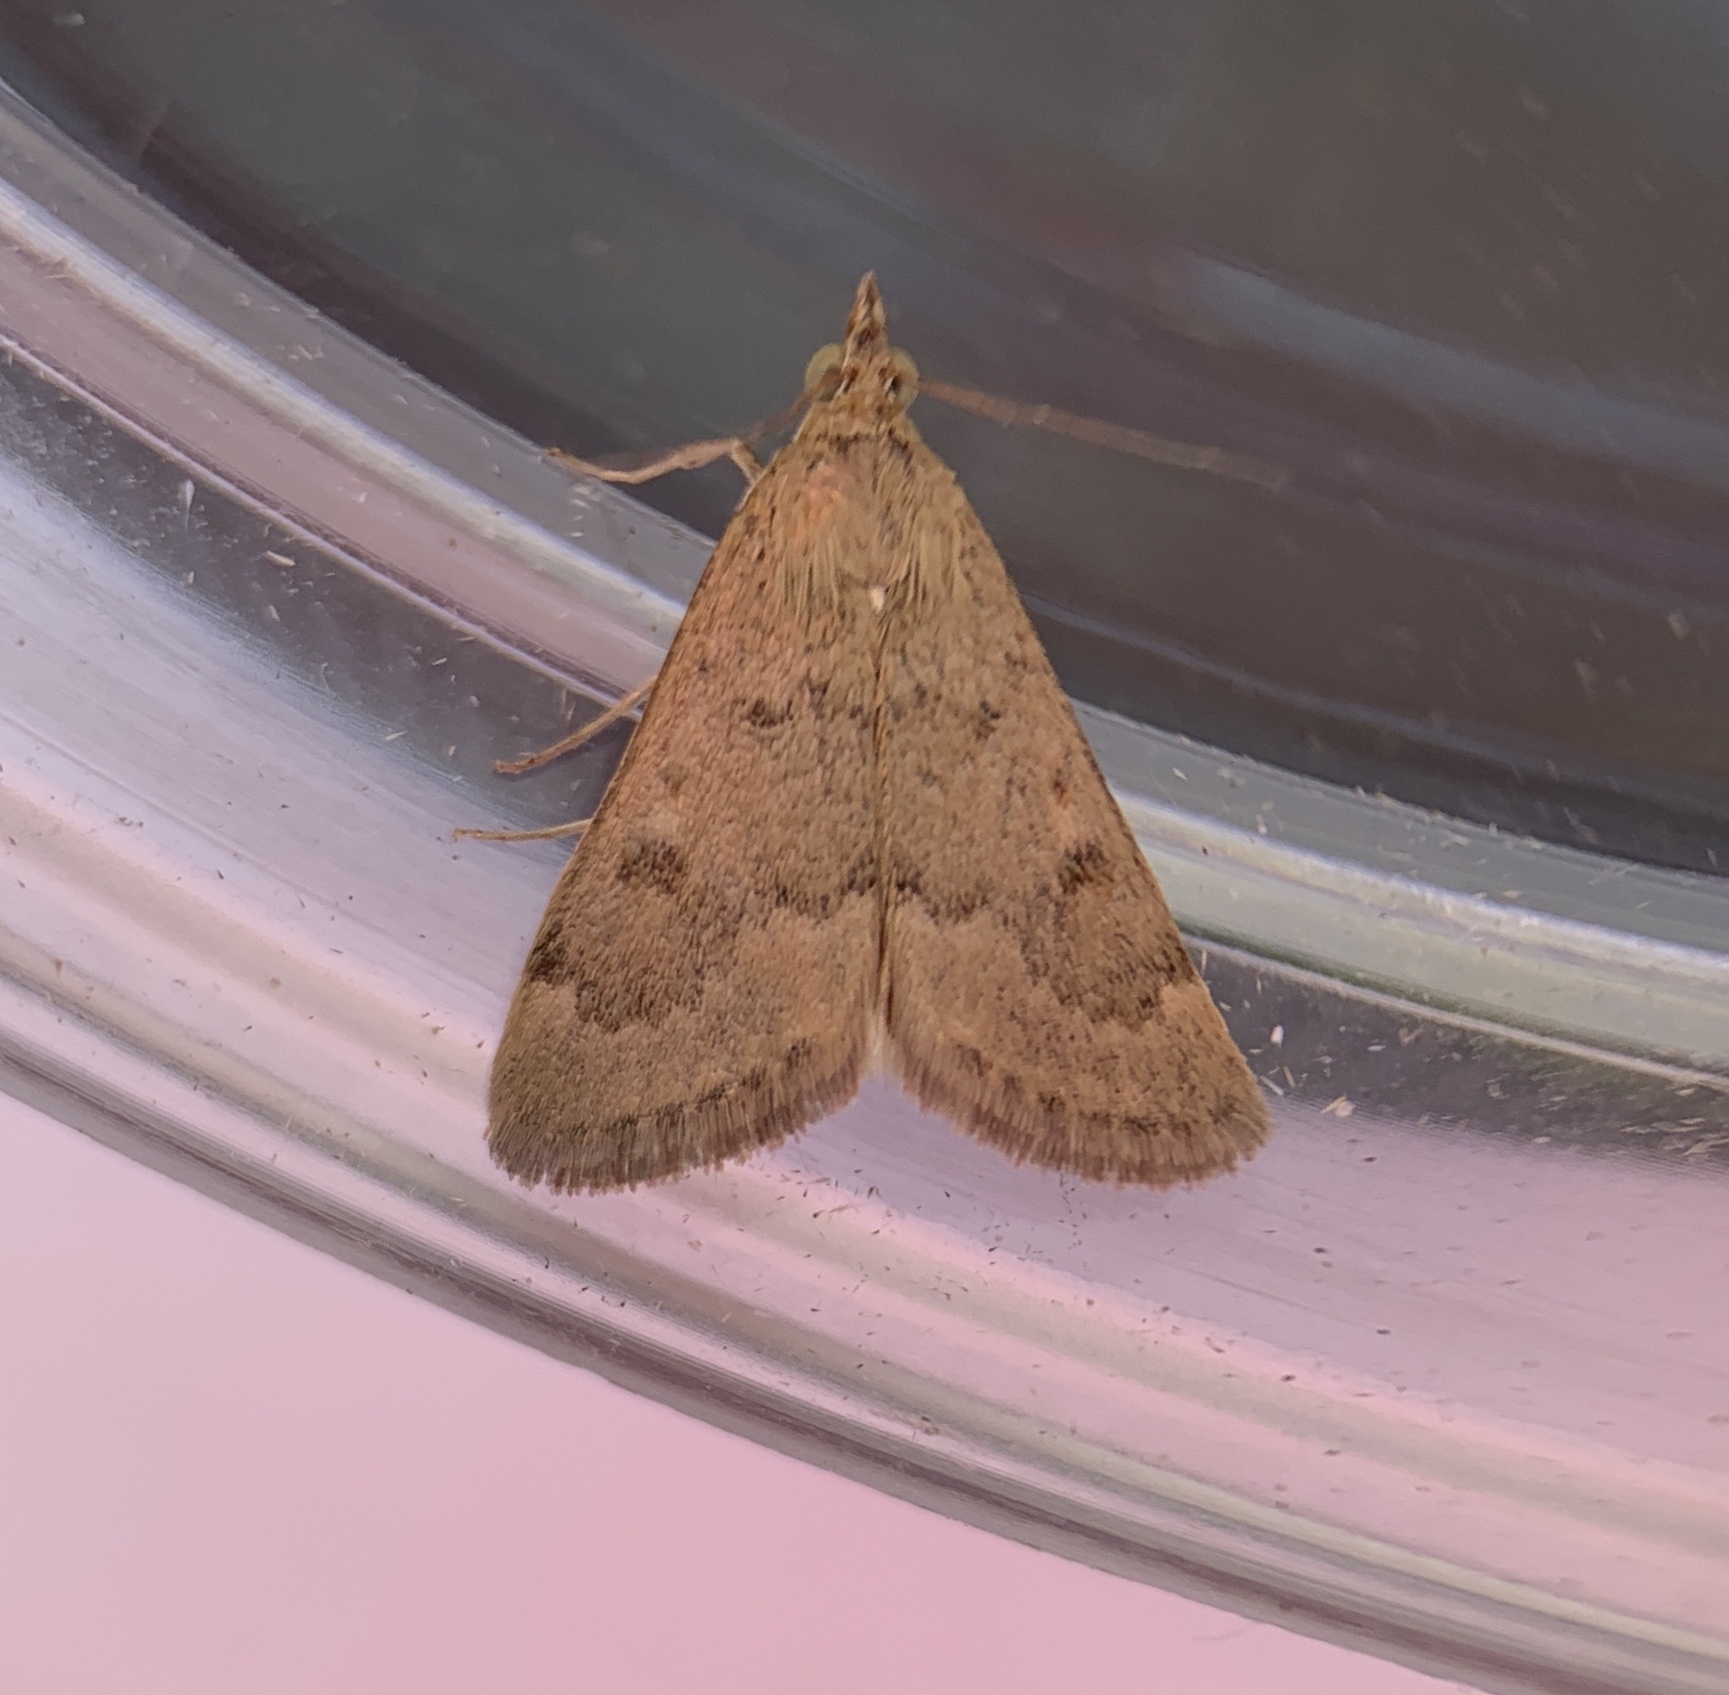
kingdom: Animalia
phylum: Arthropoda
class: Insecta
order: Lepidoptera
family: Crambidae
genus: Achyra
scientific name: Achyra rantalis
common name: Garden webworm
